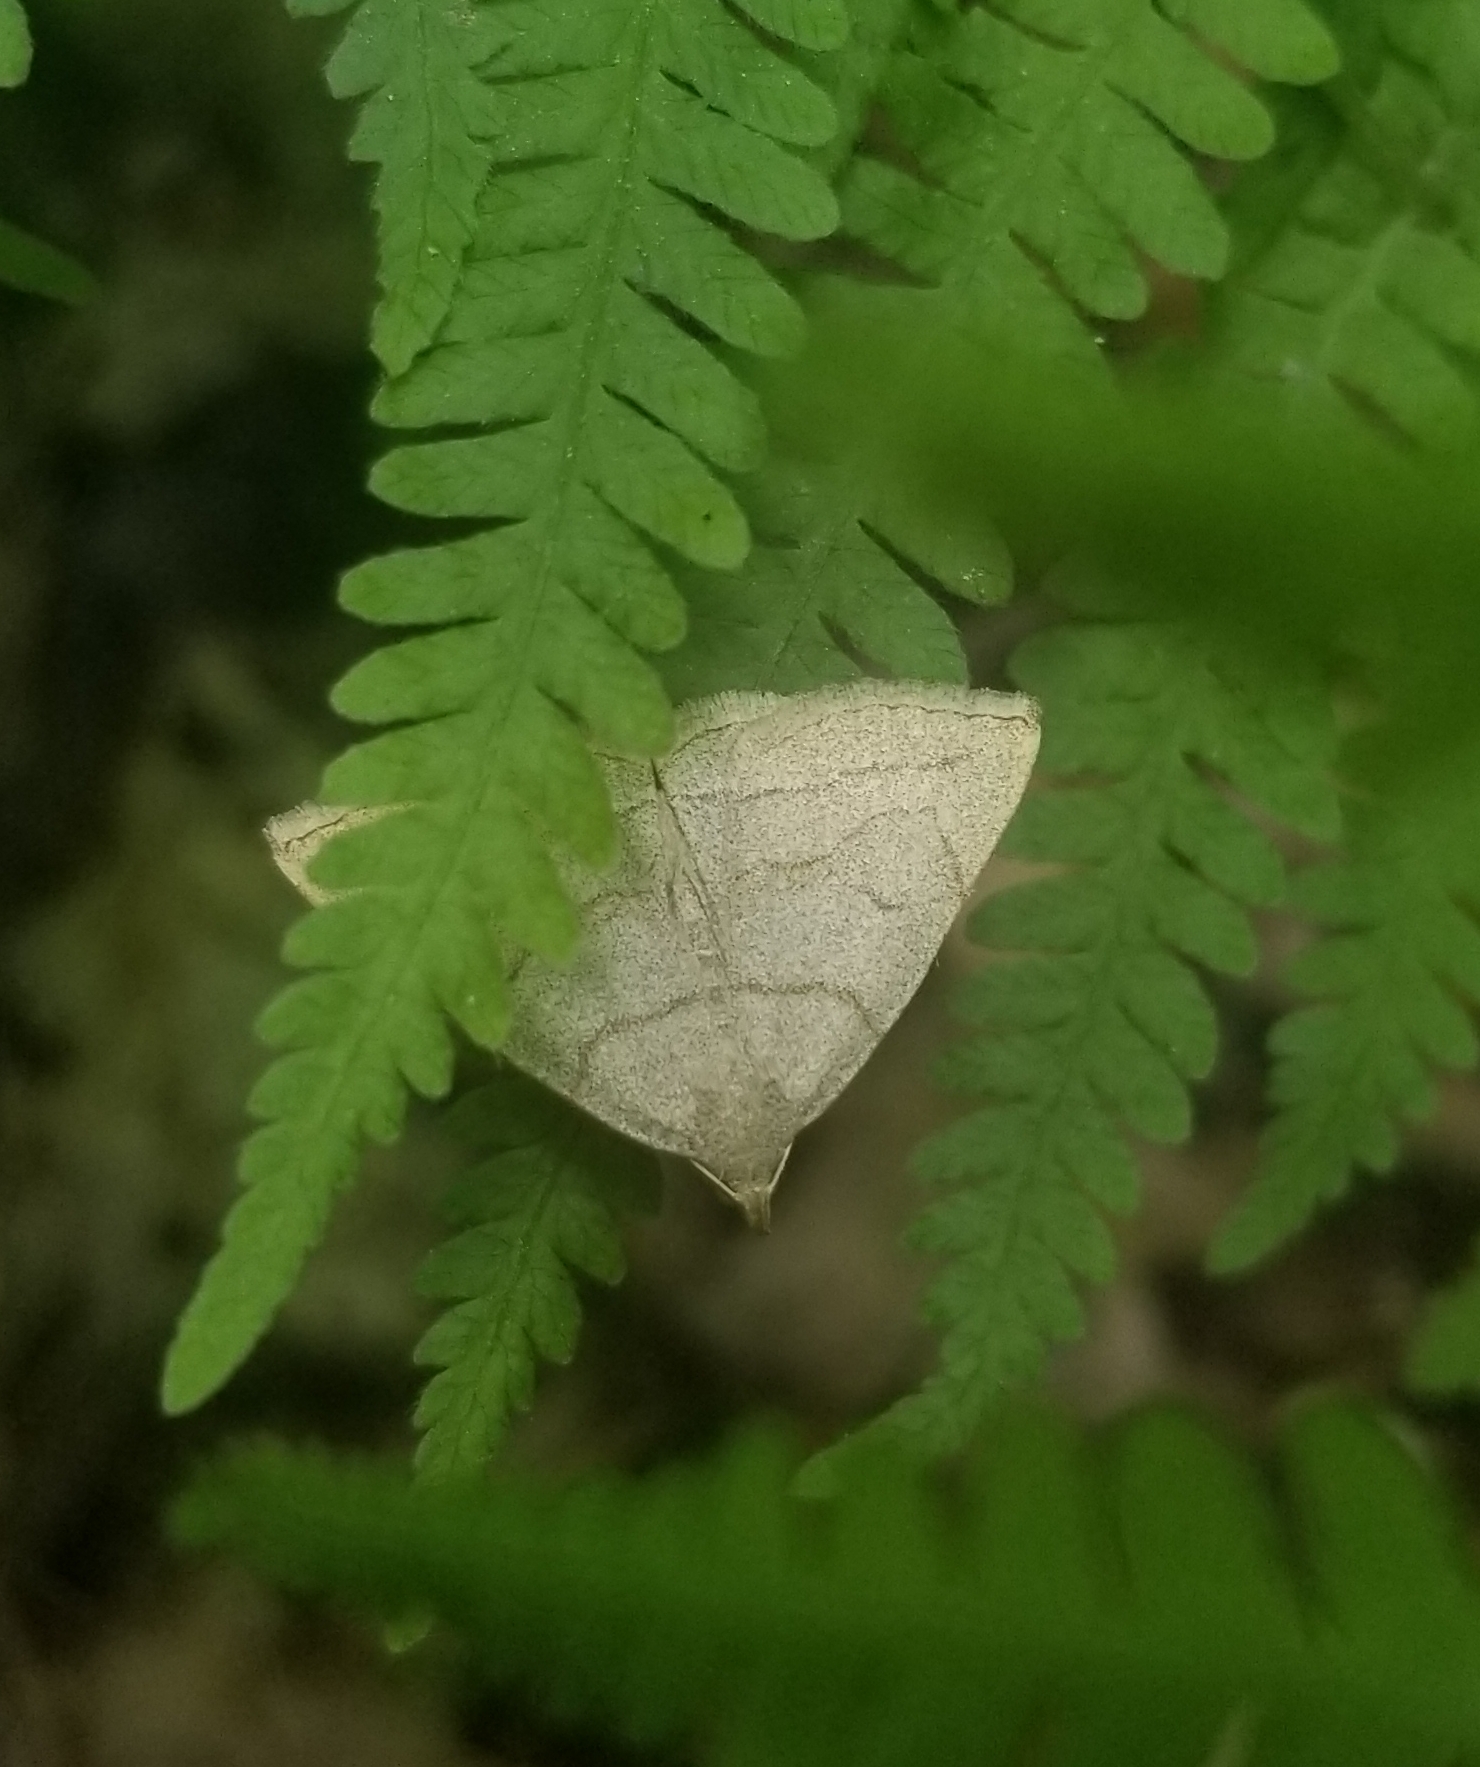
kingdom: Animalia
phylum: Arthropoda
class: Insecta
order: Lepidoptera
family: Erebidae
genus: Zanclognatha
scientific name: Zanclognatha pedipilalis
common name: Grayish fan-foot
